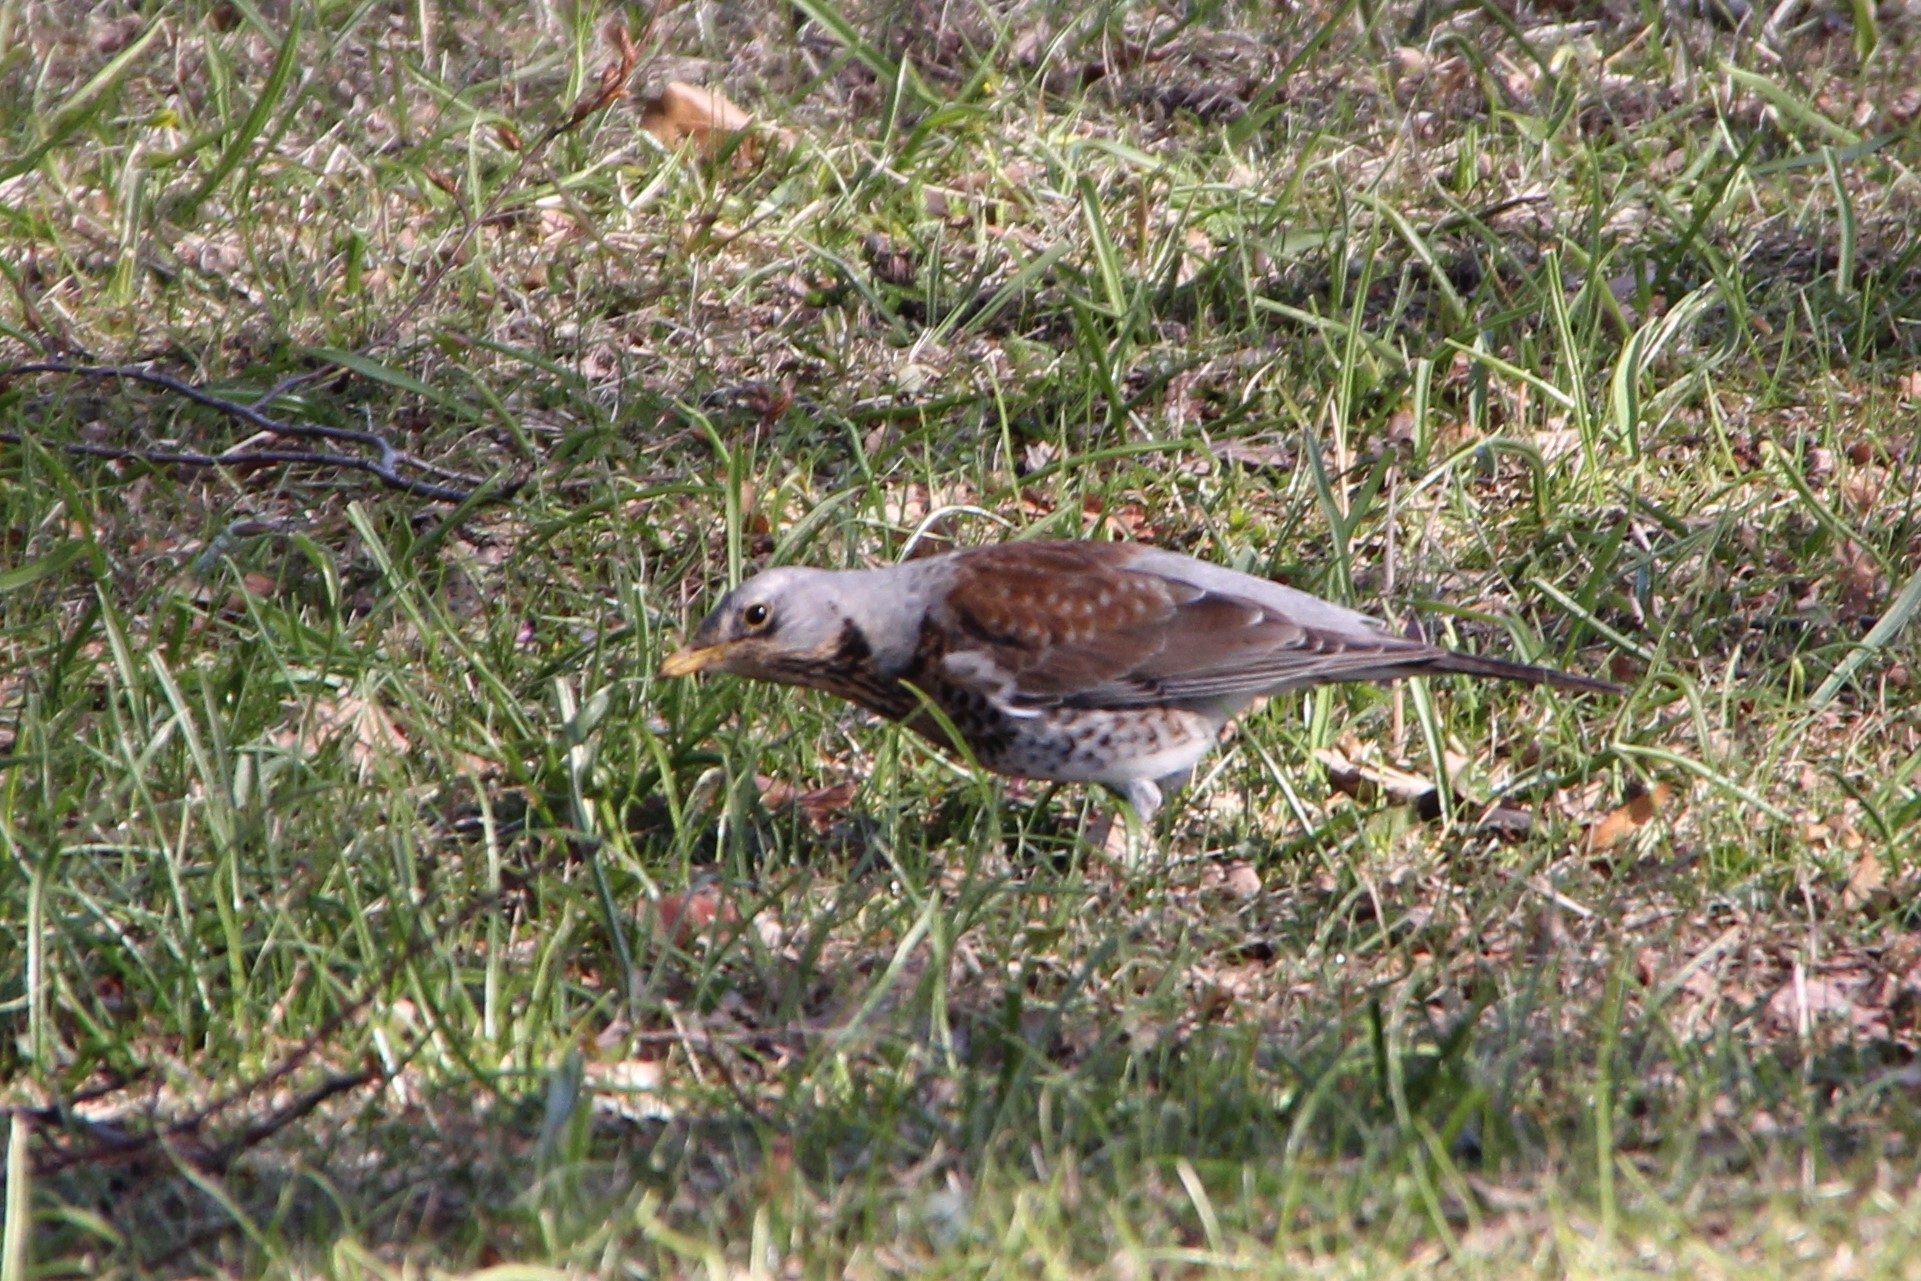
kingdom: Animalia
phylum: Chordata
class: Aves
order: Passeriformes
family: Turdidae
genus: Turdus
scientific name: Turdus pilaris
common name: Fieldfare
